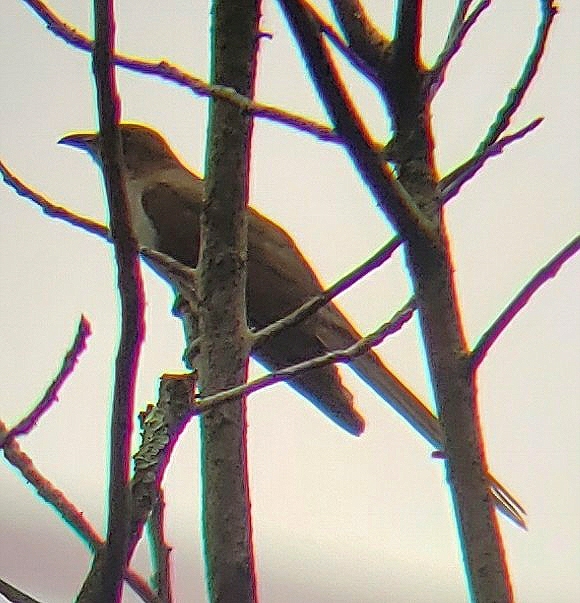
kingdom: Animalia
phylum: Chordata
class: Aves
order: Cuculiformes
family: Cuculidae
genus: Coccyzus
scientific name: Coccyzus erythropthalmus
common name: Black-billed cuckoo
